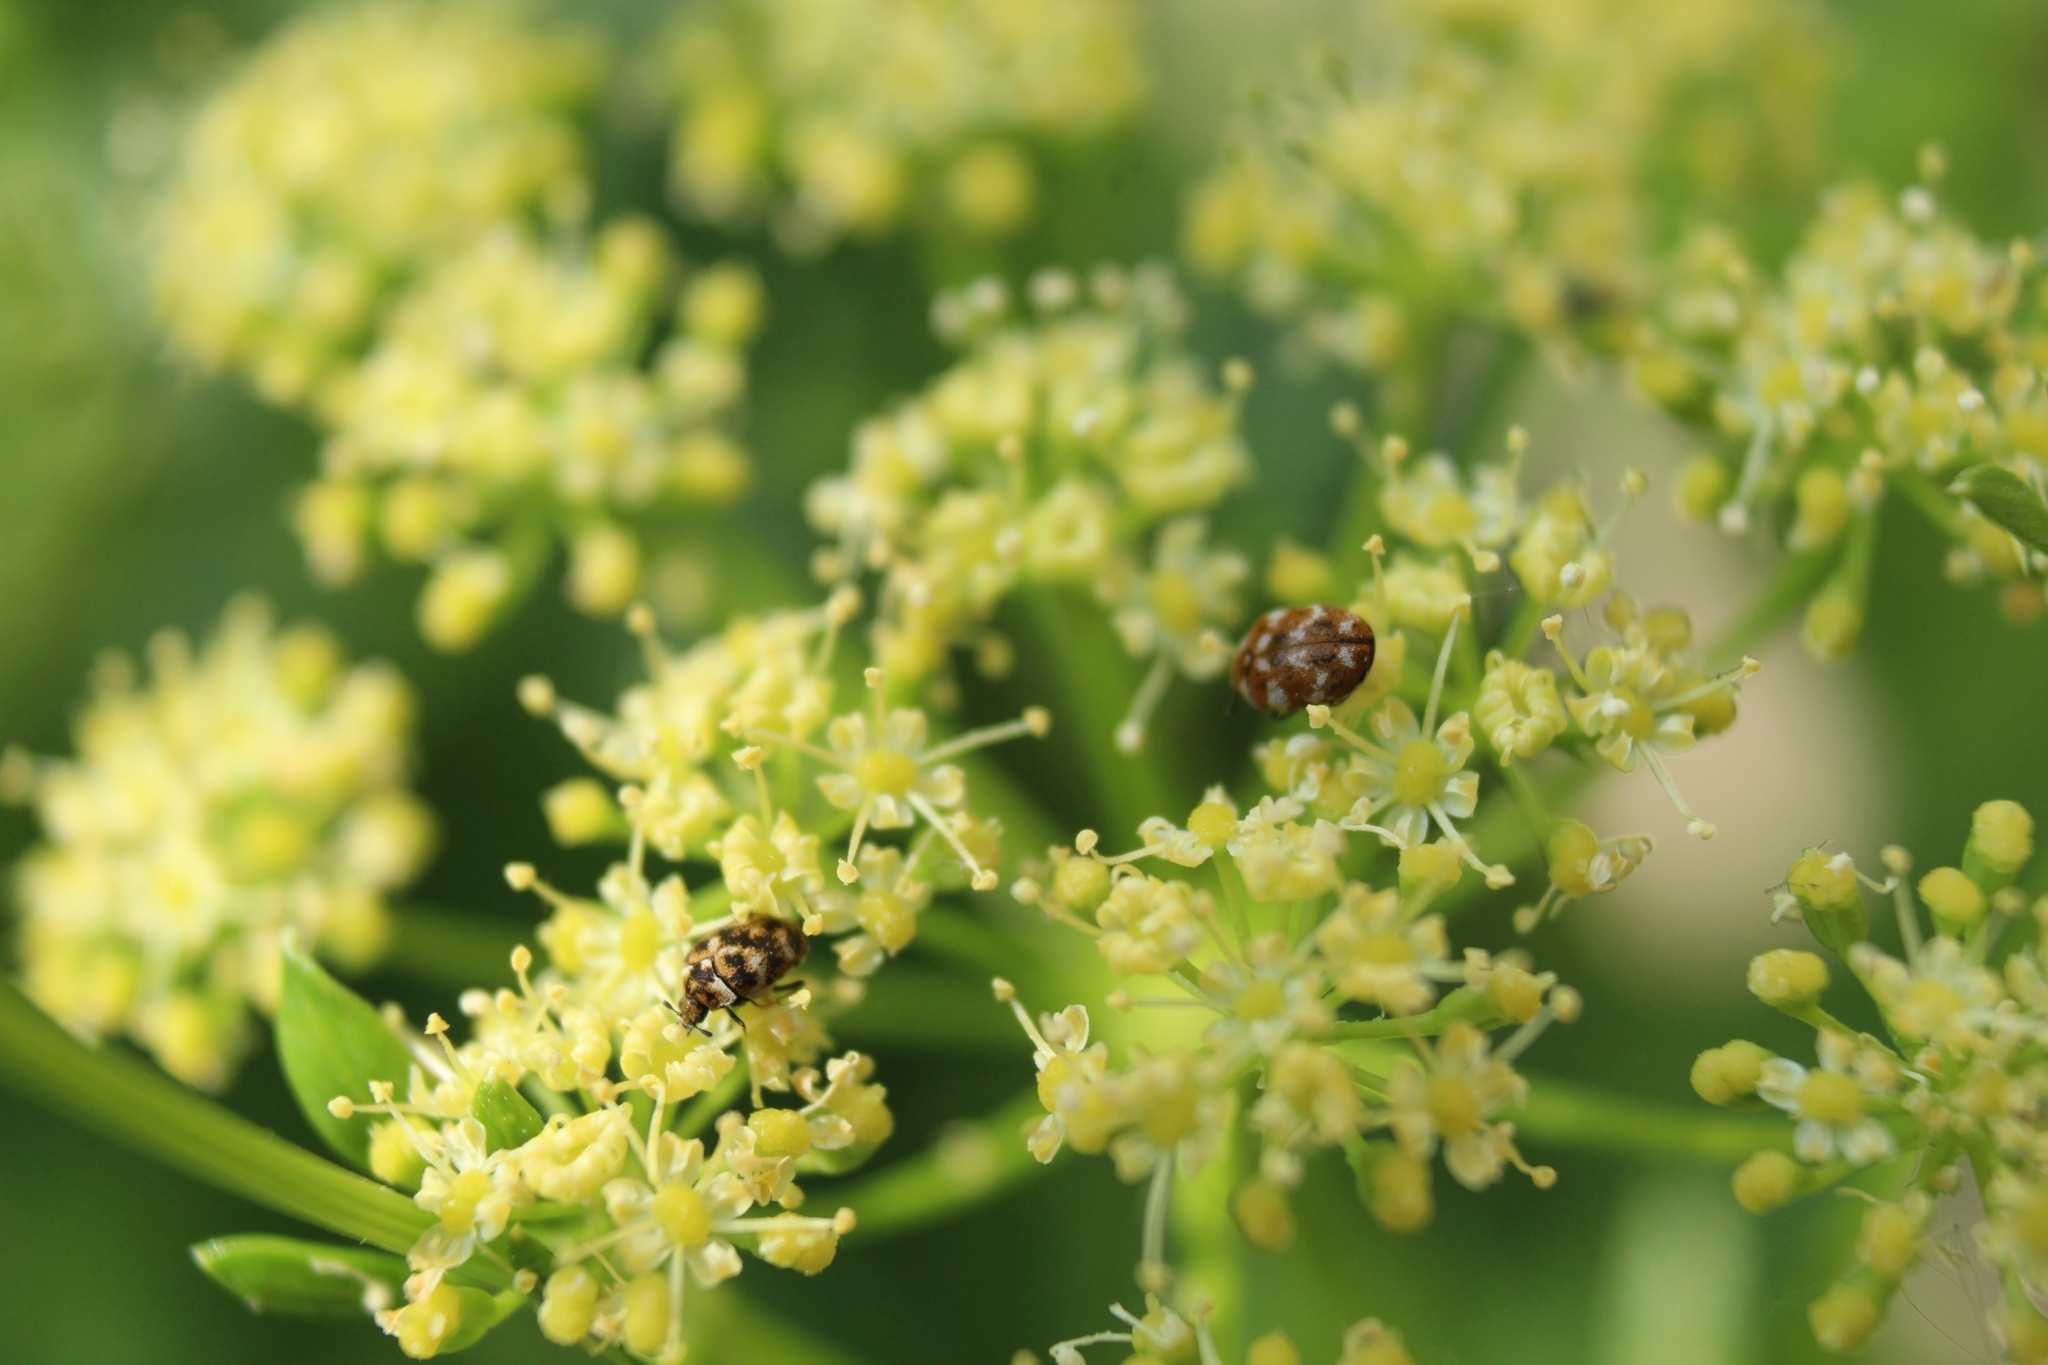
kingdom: Animalia
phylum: Arthropoda
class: Insecta
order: Coleoptera
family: Dermestidae
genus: Anthrenus
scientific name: Anthrenus verbasci
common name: Varied carpet beetle
